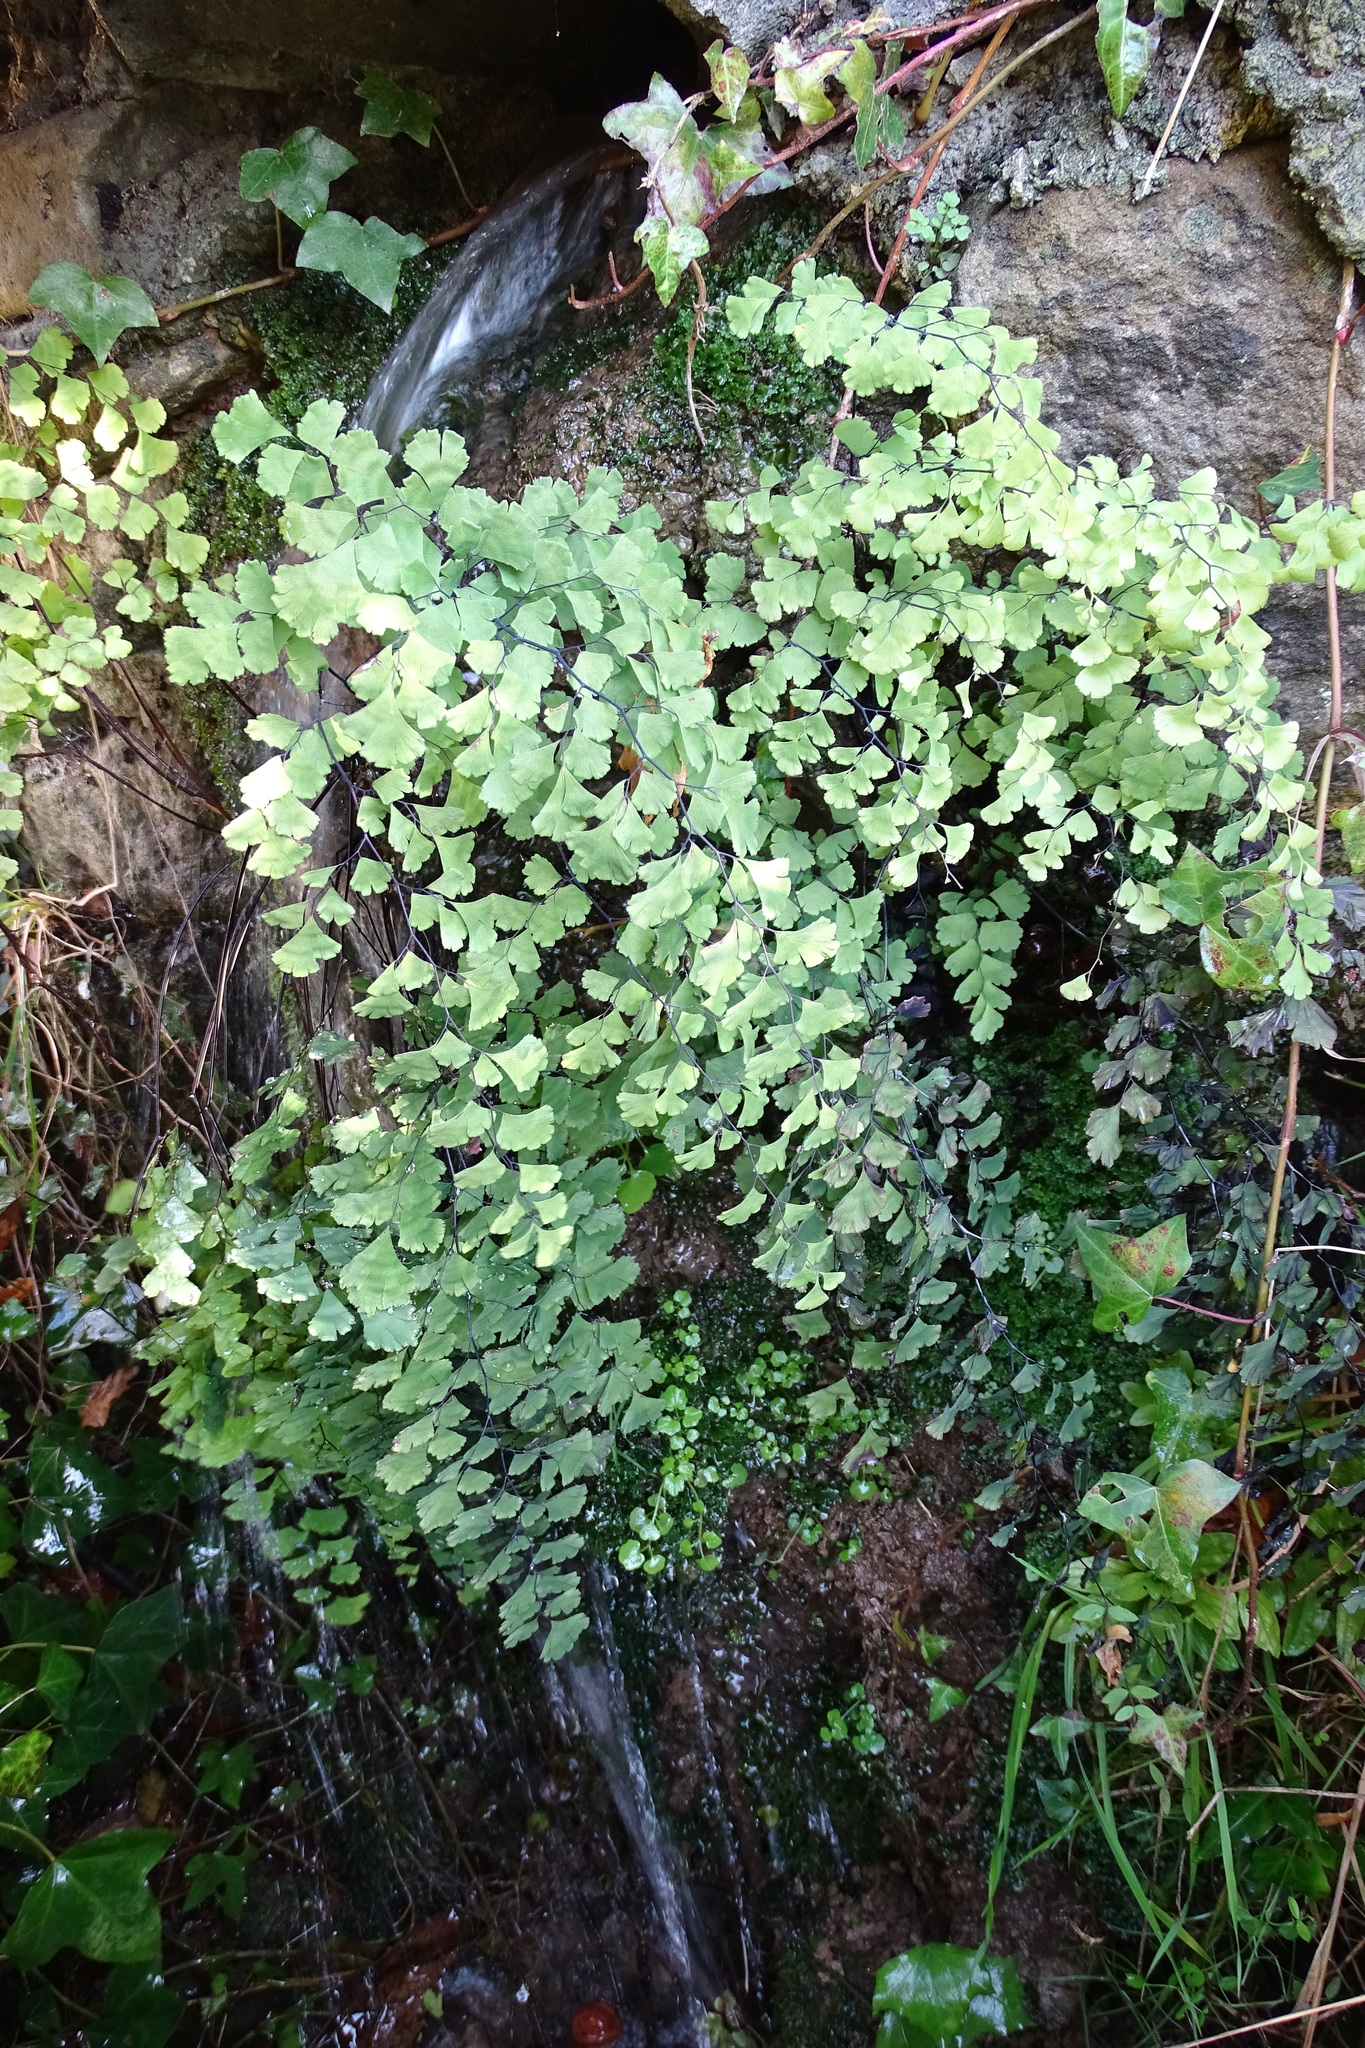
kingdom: Plantae
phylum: Tracheophyta
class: Polypodiopsida
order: Polypodiales
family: Pteridaceae
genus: Adiantum
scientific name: Adiantum capillus-veneris
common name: Maidenhair fern
